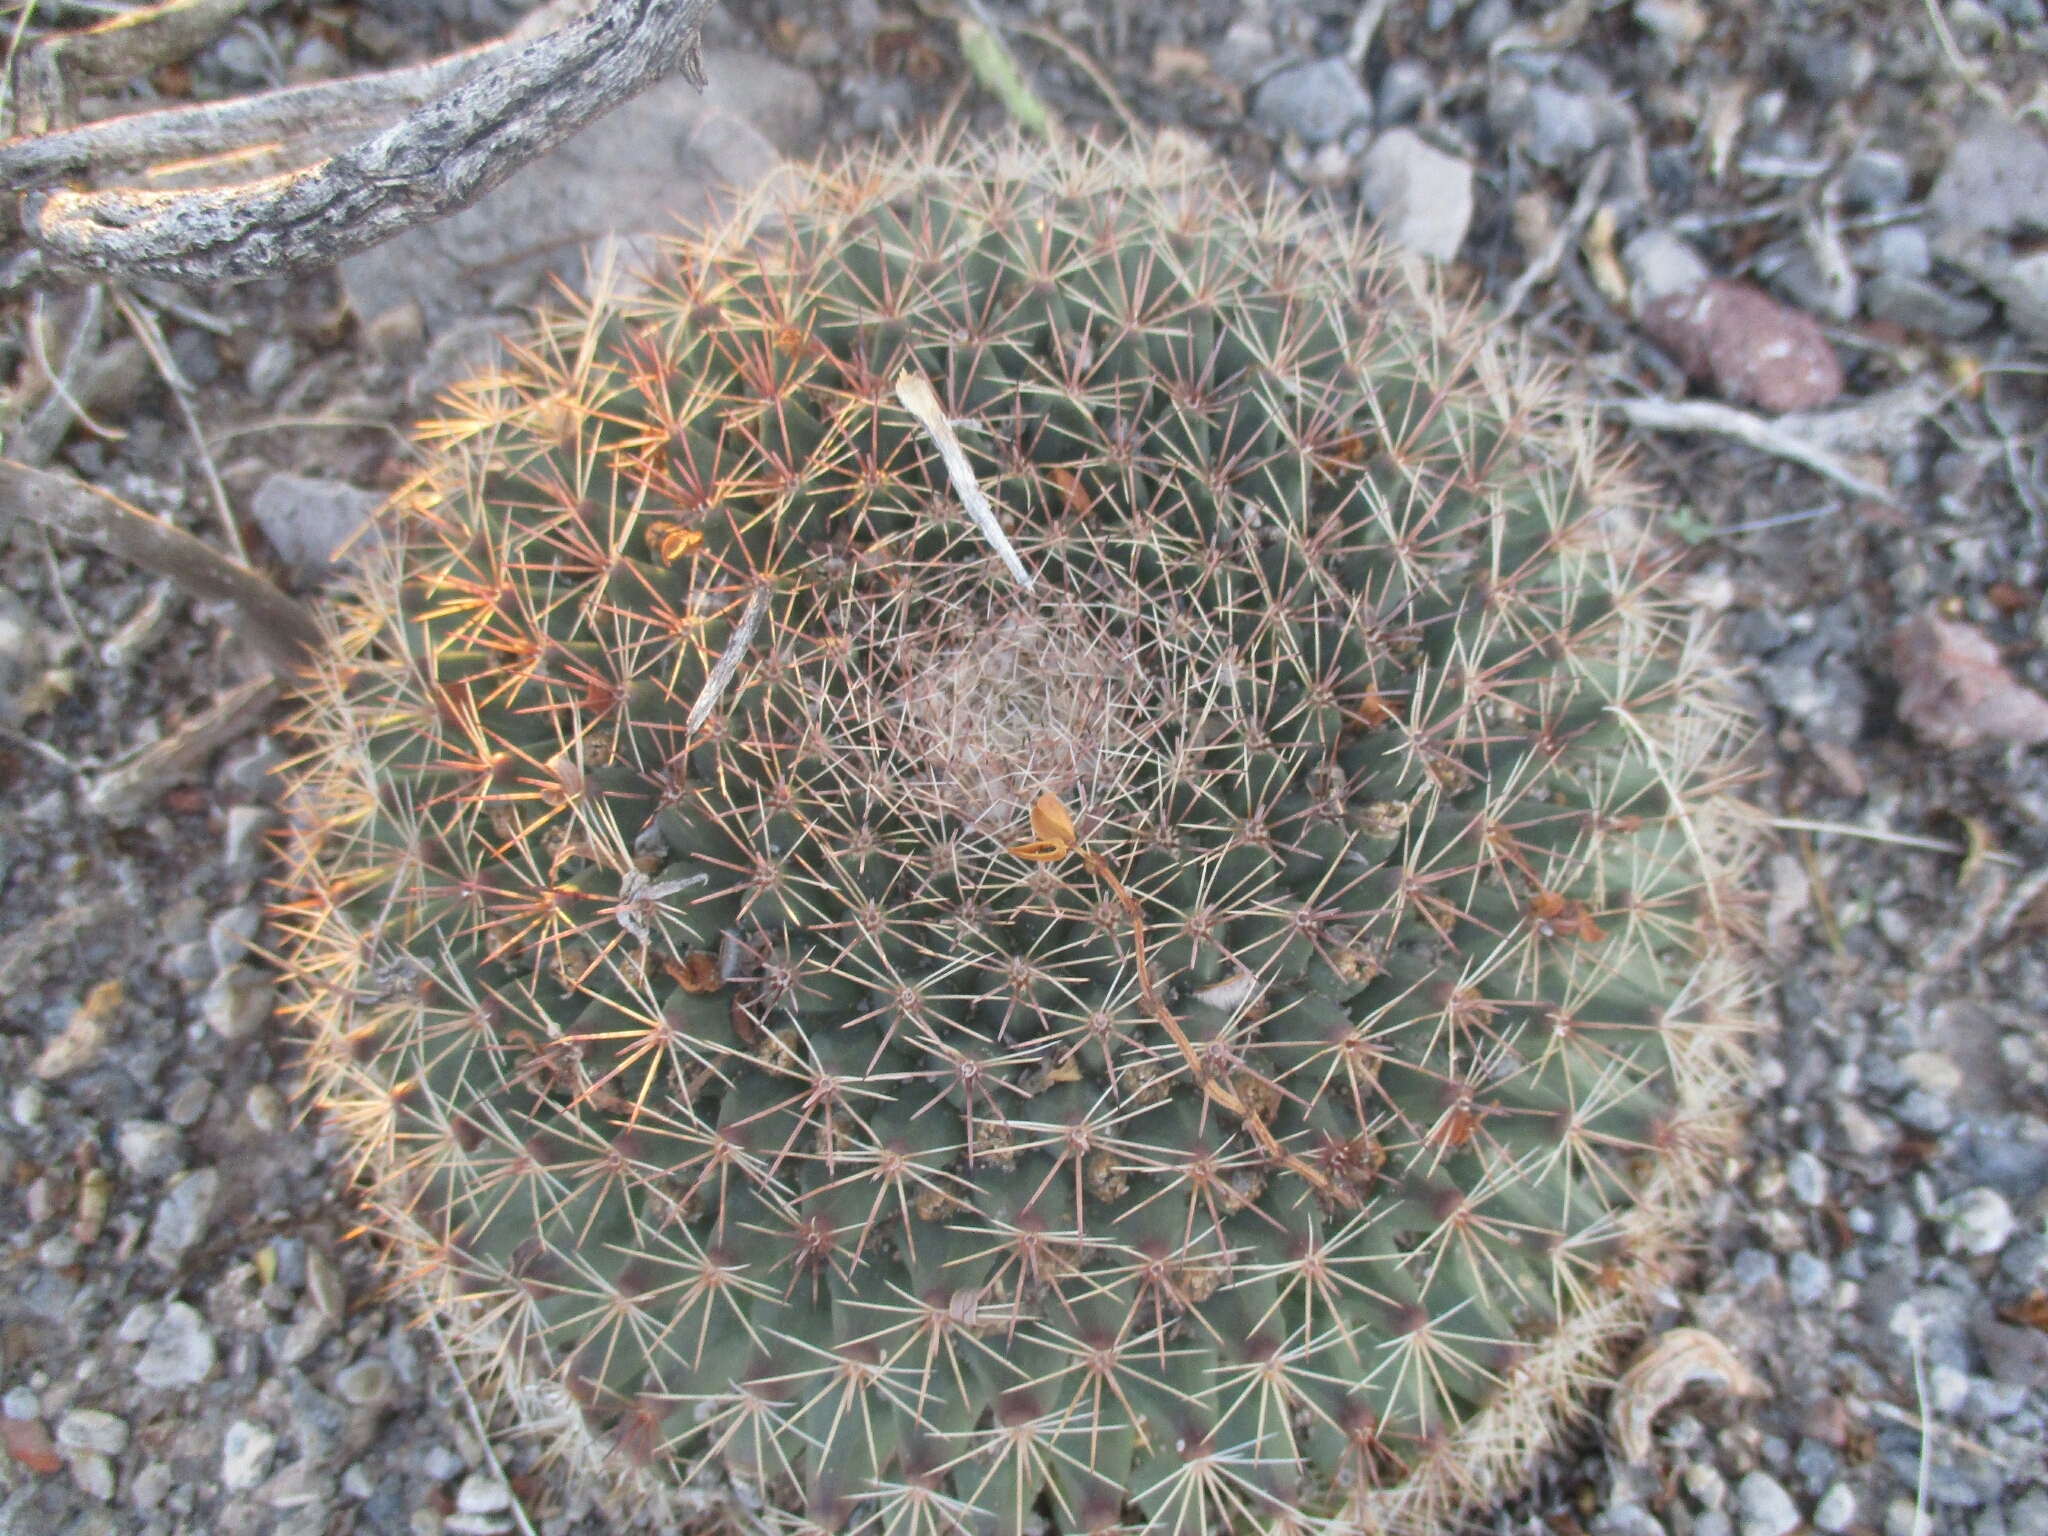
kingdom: Plantae
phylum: Tracheophyta
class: Magnoliopsida
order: Caryophyllales
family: Cactaceae
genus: Mammillaria
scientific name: Mammillaria heyderi
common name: Little nipple cactus
